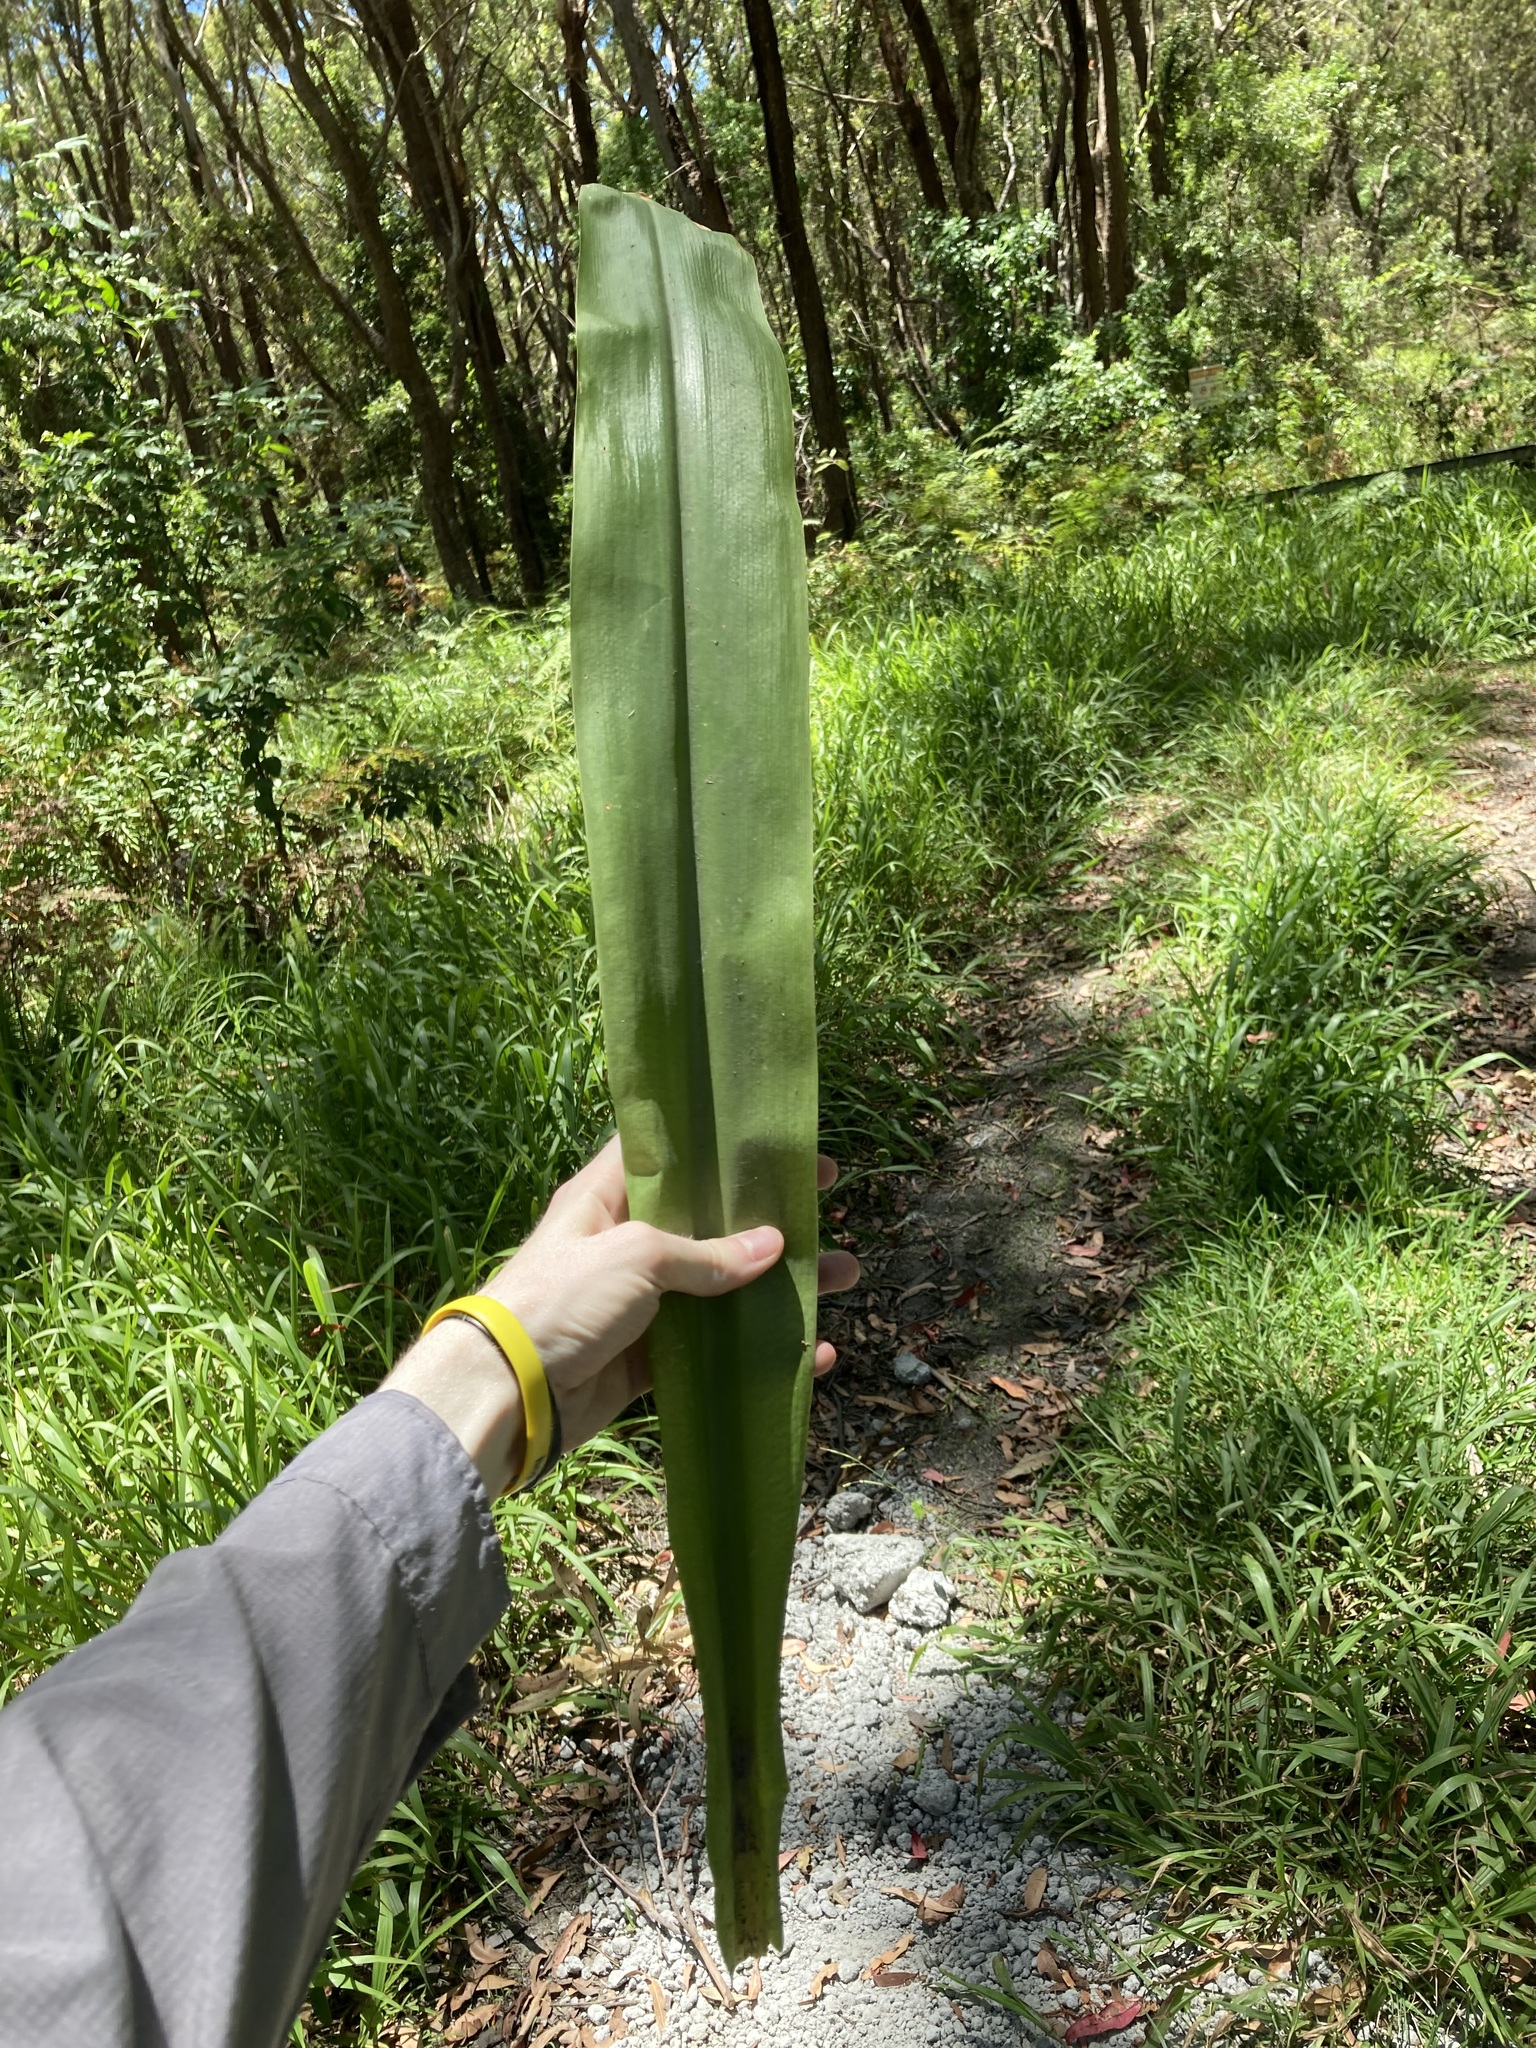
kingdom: Plantae
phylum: Tracheophyta
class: Liliopsida
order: Asparagales
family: Amaryllidaceae
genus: Crinum
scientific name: Crinum moorei
